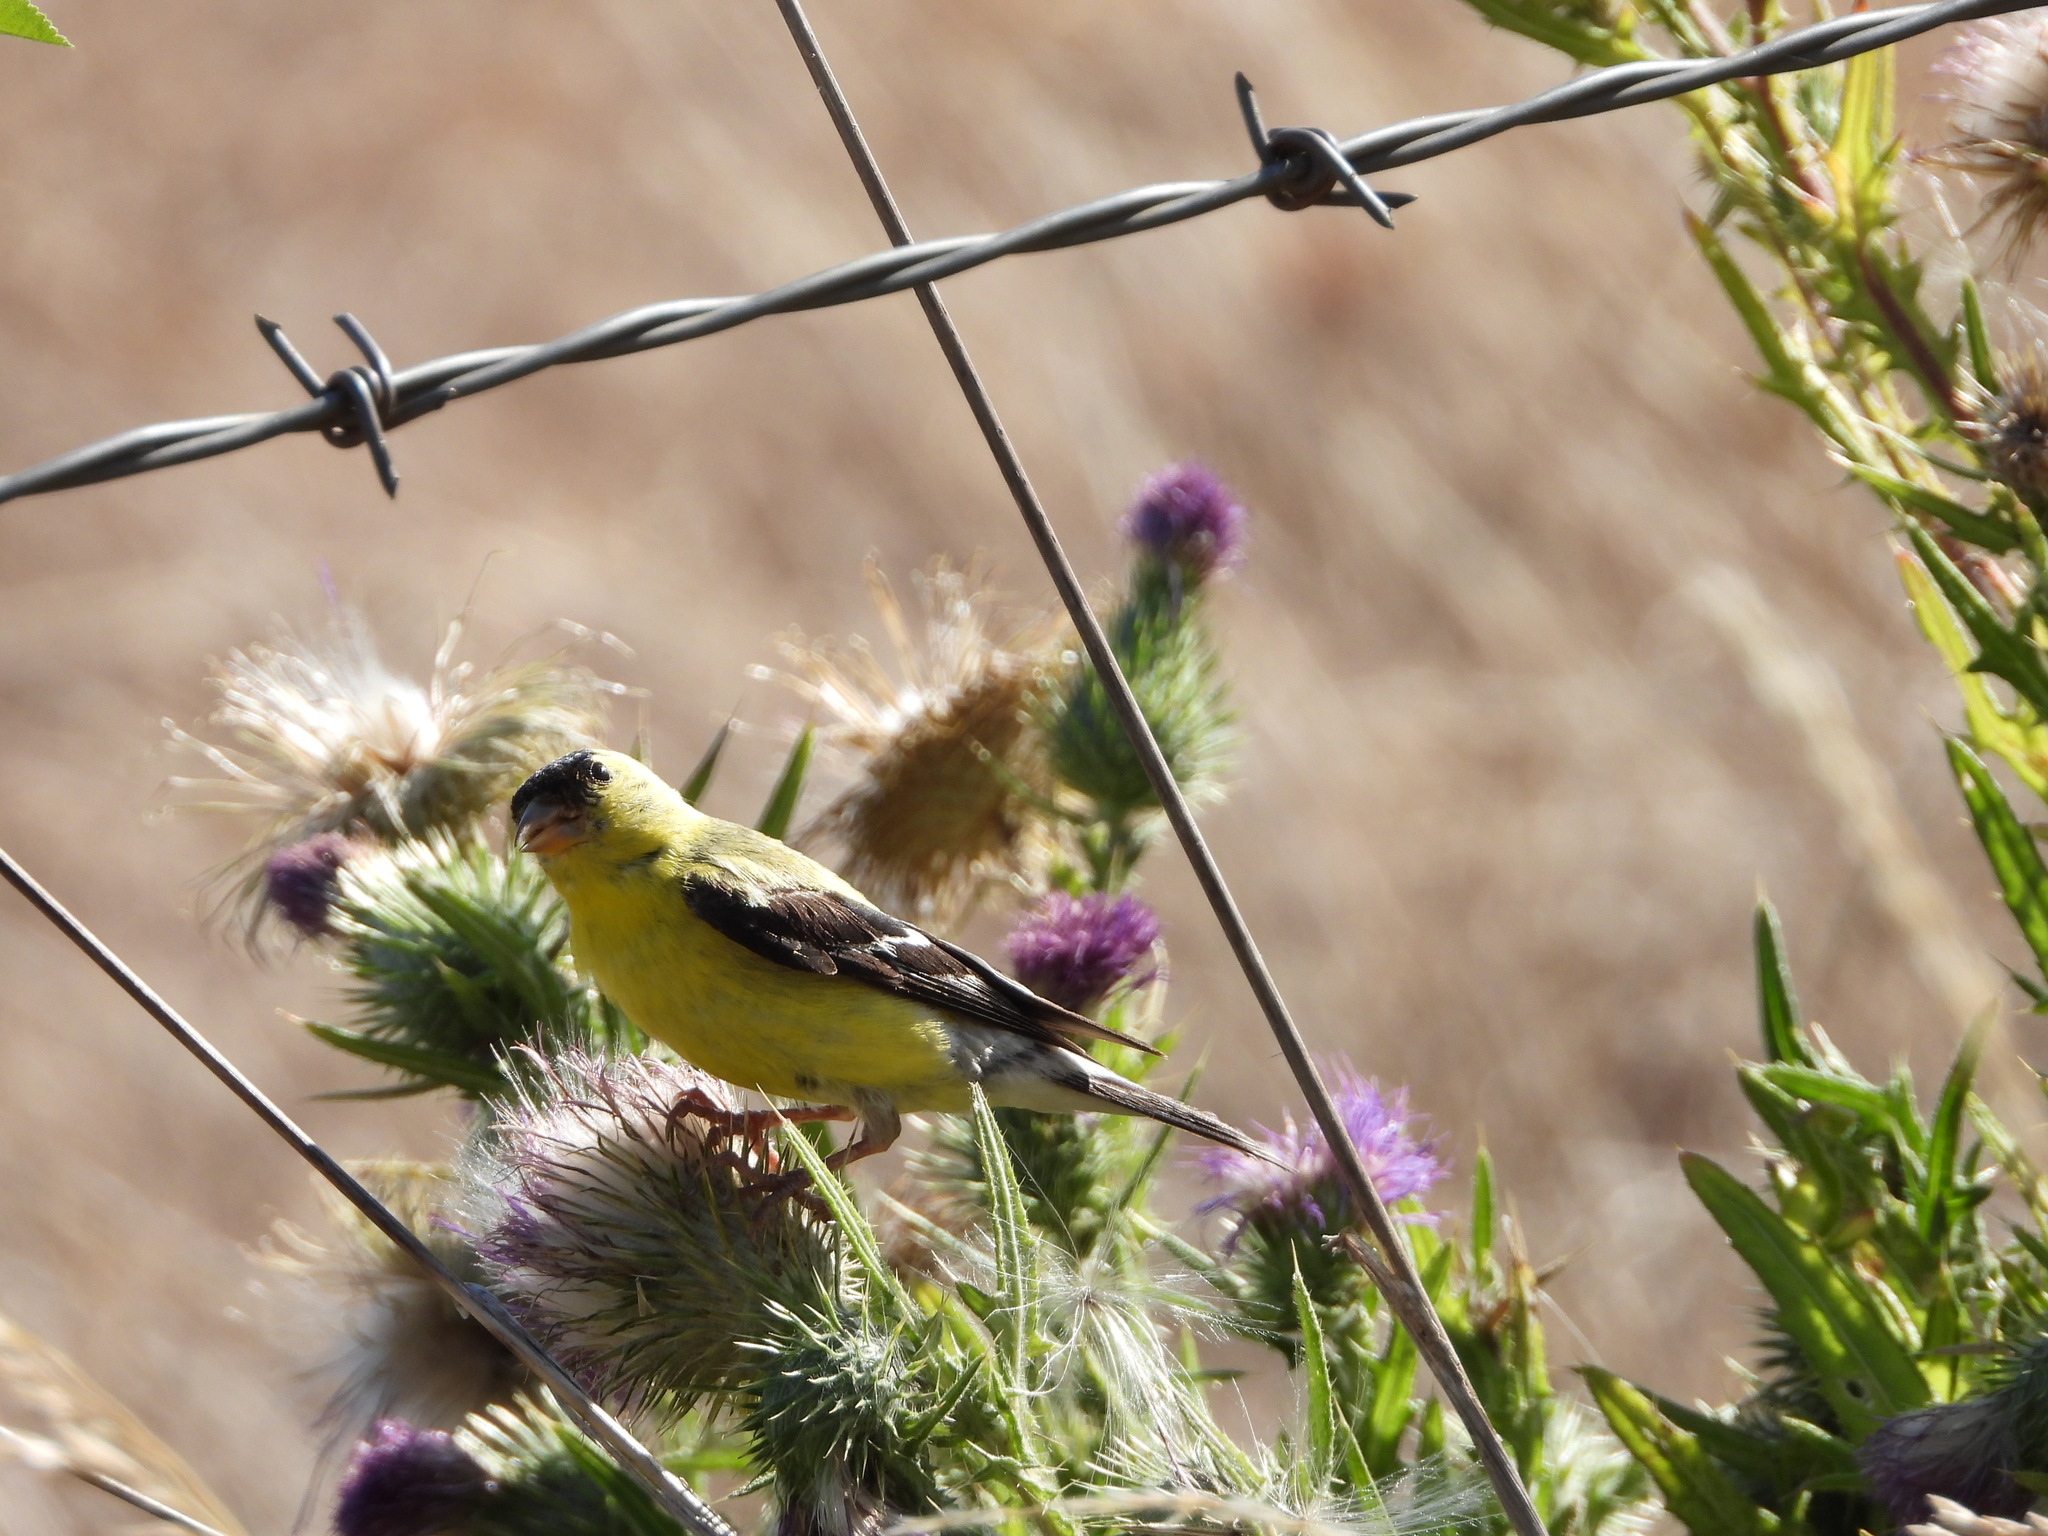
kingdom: Animalia
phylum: Chordata
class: Aves
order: Passeriformes
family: Fringillidae
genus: Spinus
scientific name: Spinus tristis
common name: American goldfinch
